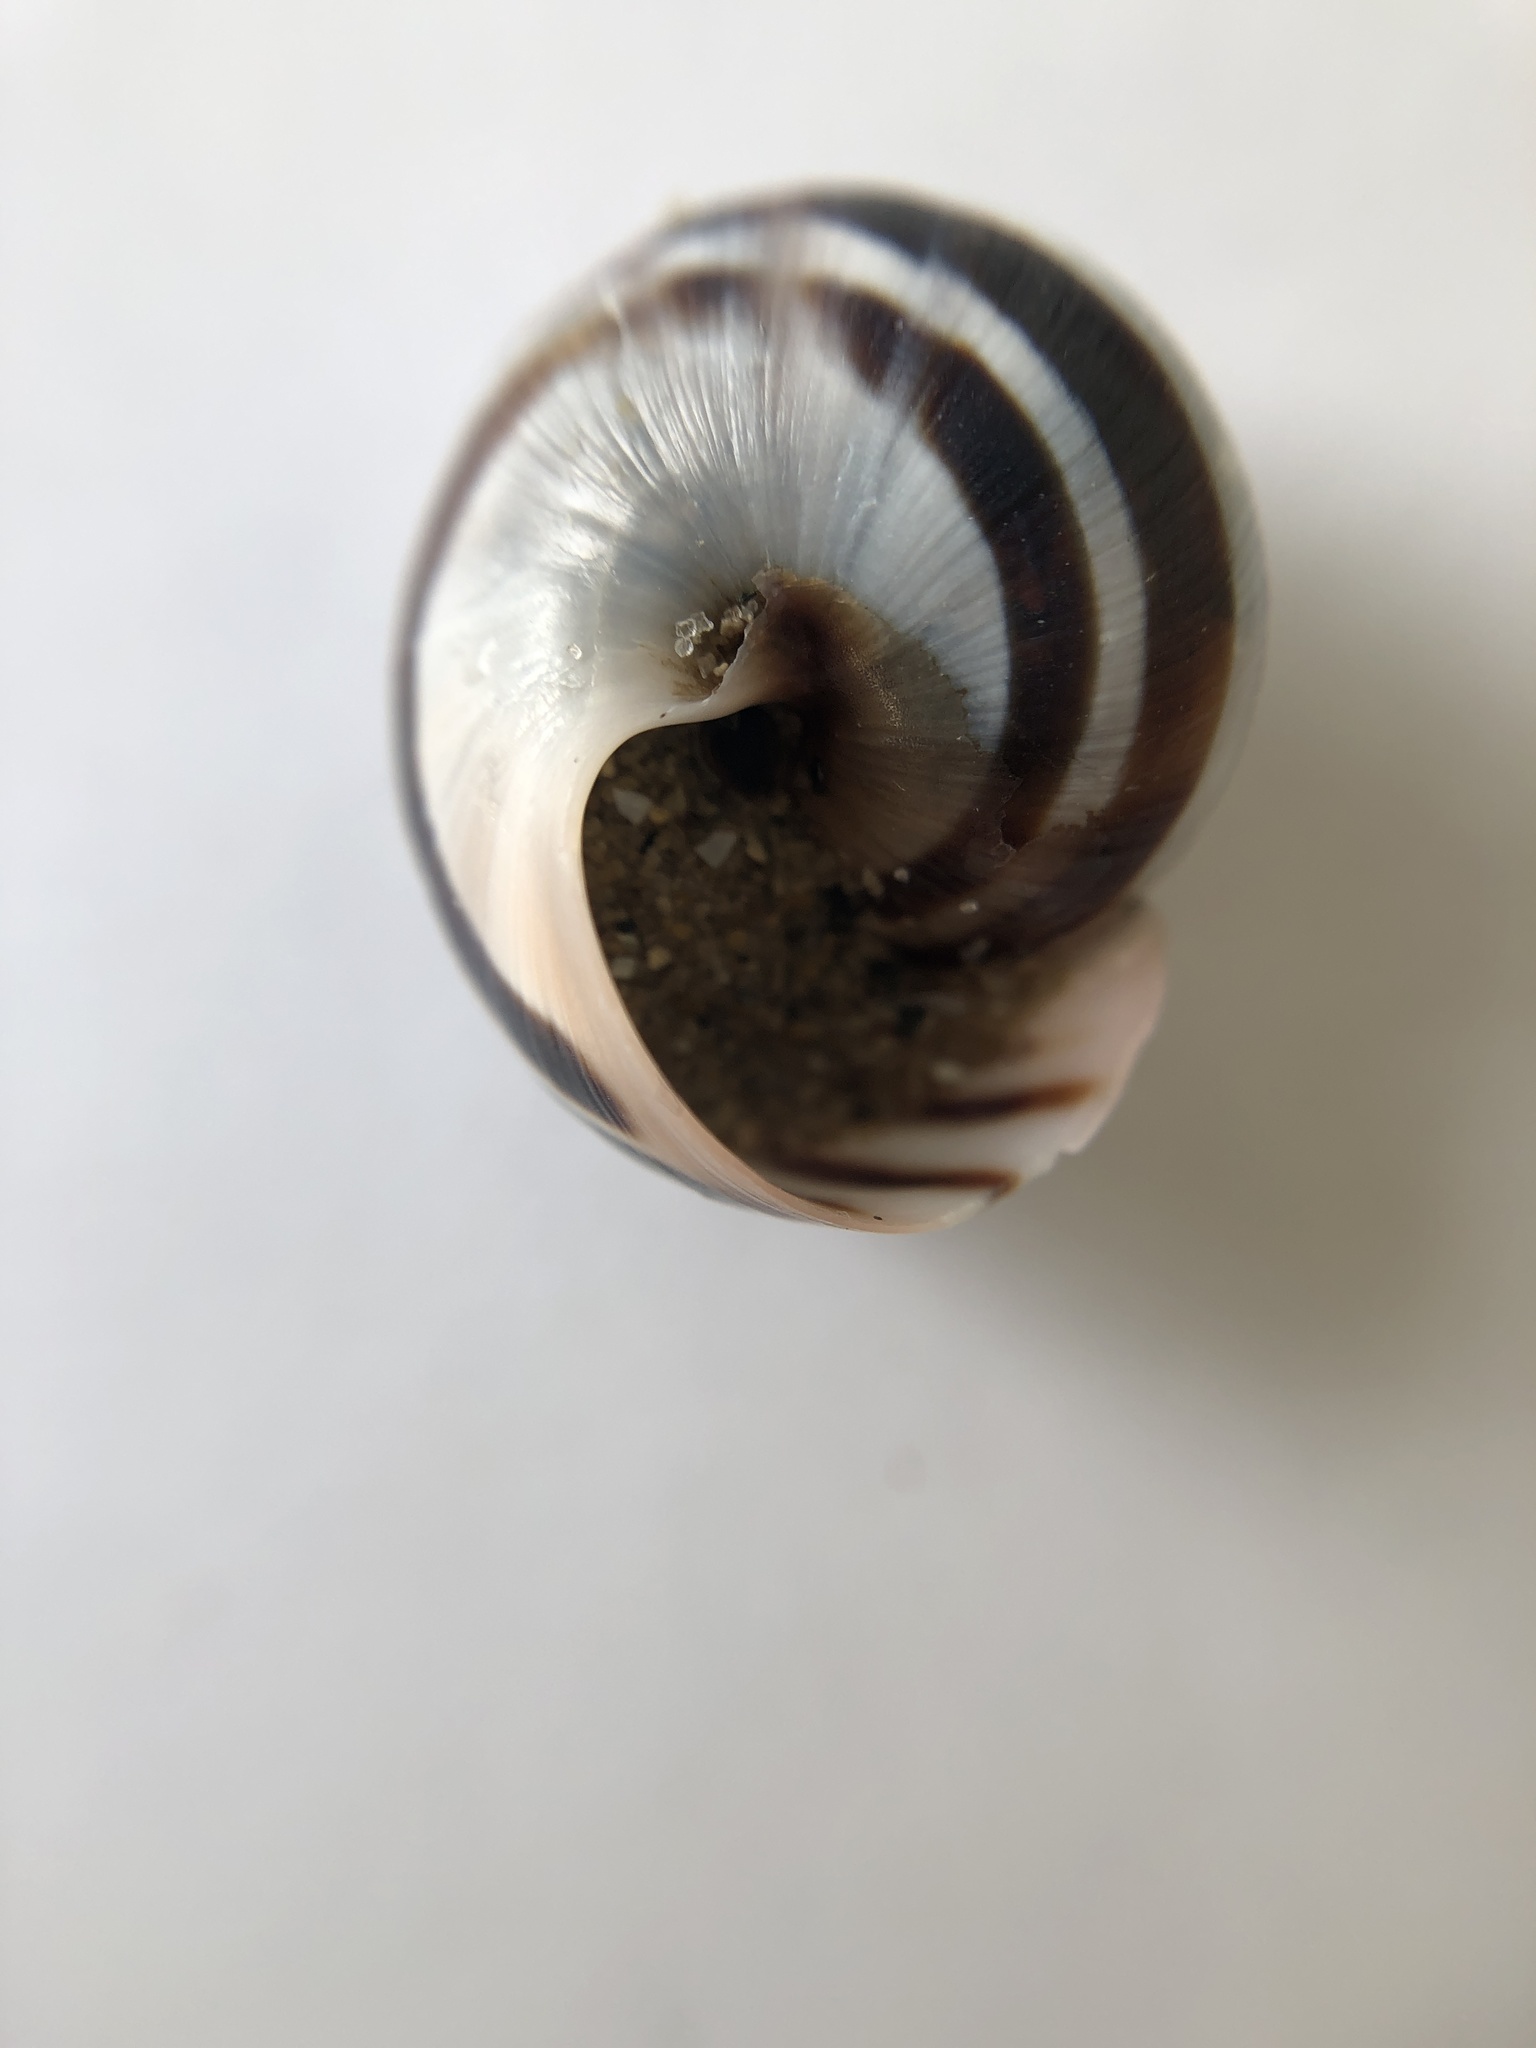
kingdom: Animalia
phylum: Mollusca
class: Gastropoda
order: Stylommatophora
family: Helicidae
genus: Cepaea
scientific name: Cepaea
